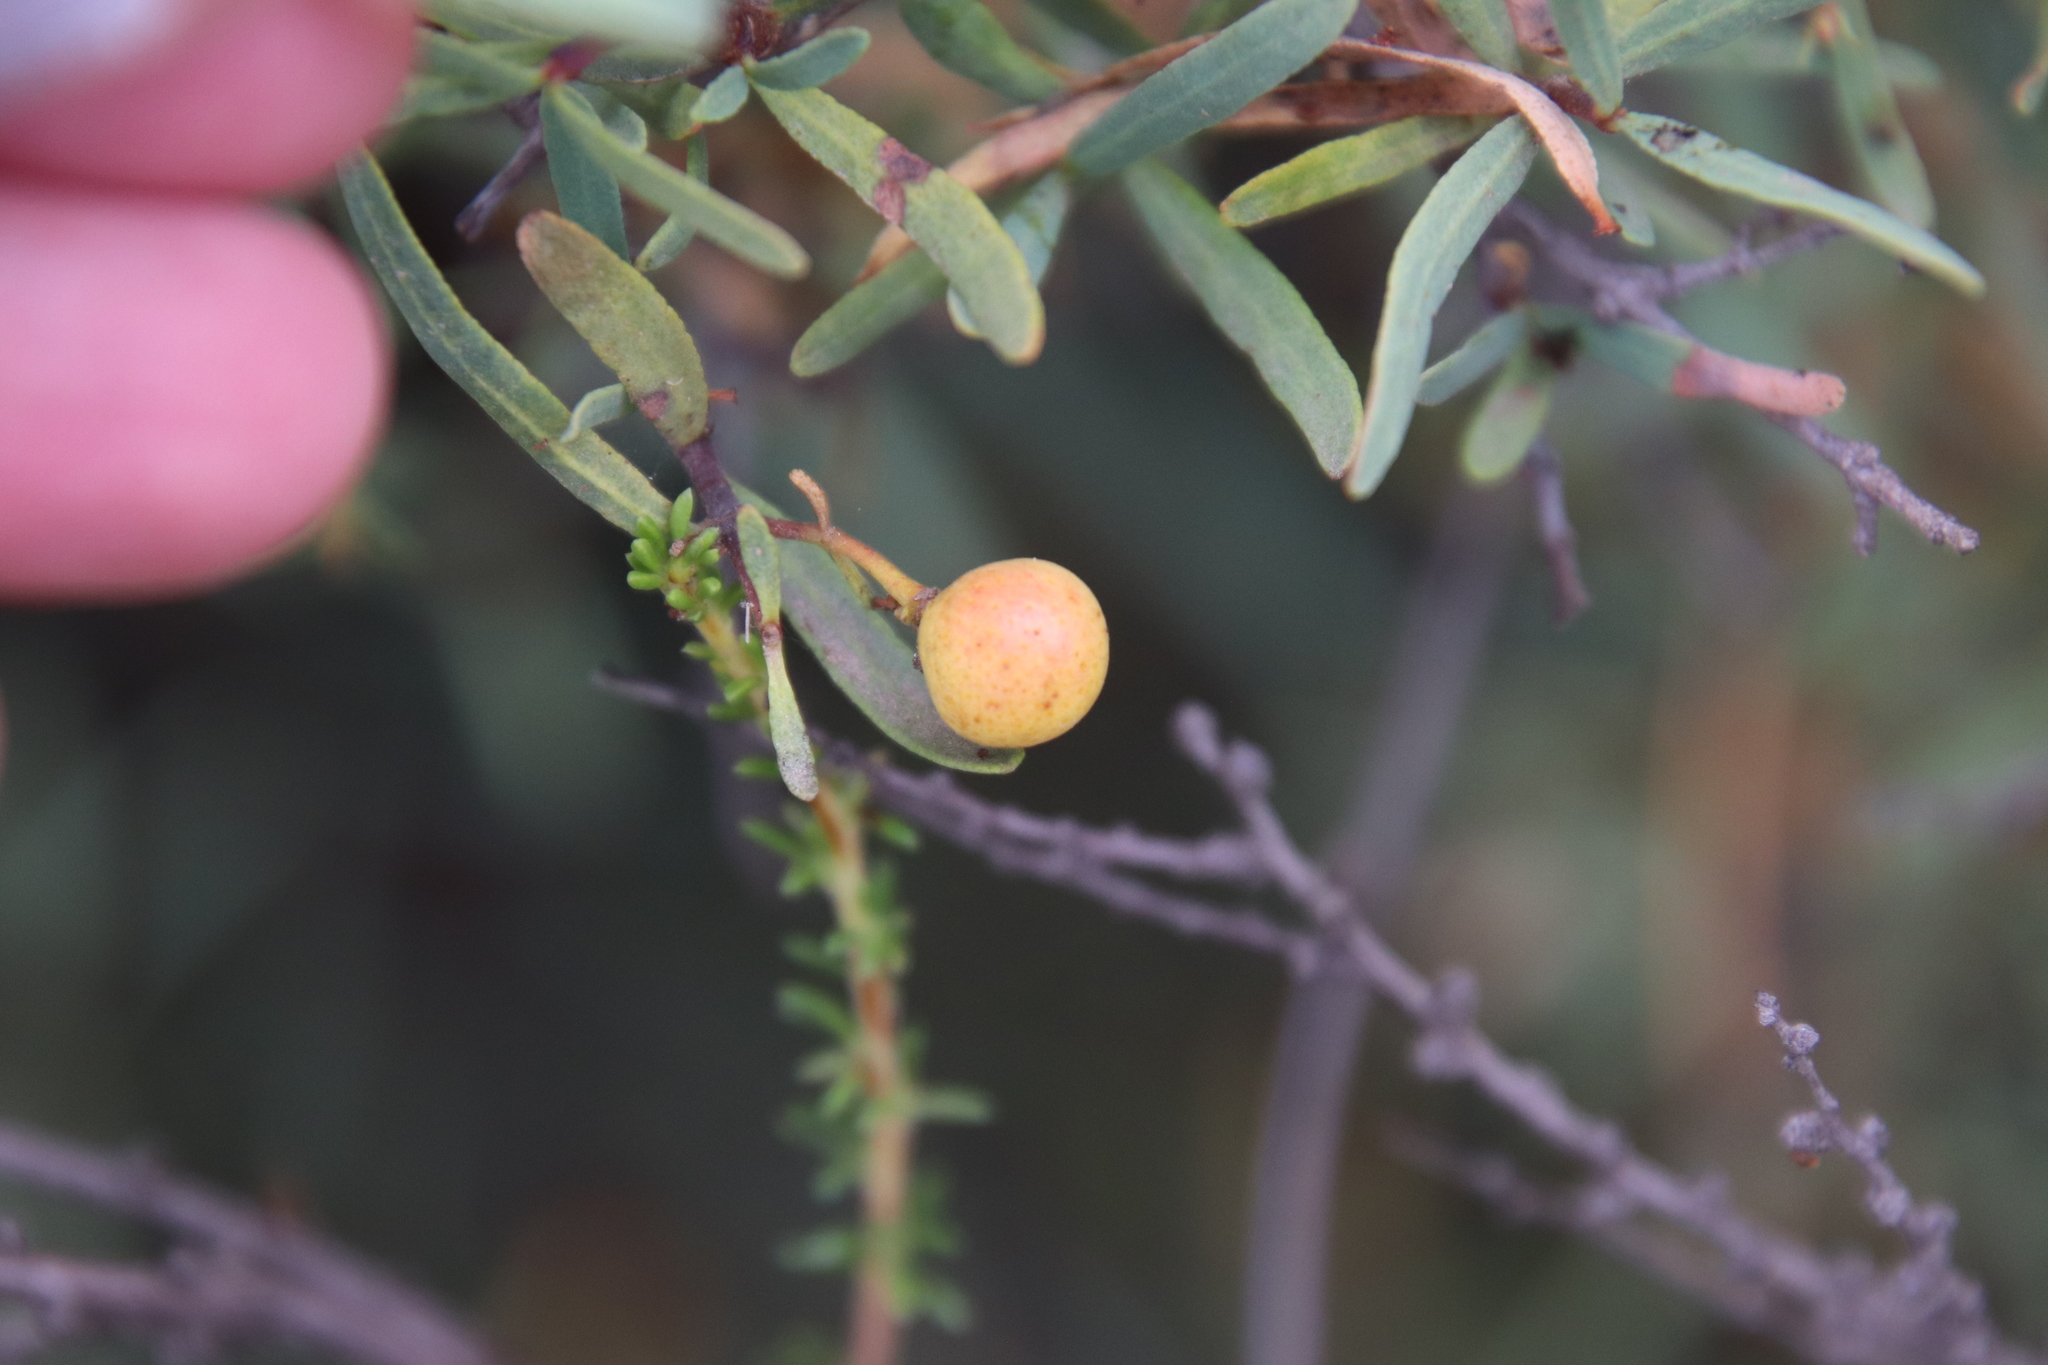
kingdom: Plantae
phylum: Tracheophyta
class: Magnoliopsida
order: Sapindales
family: Rutaceae
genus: Cneoridium
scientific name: Cneoridium dumosum
